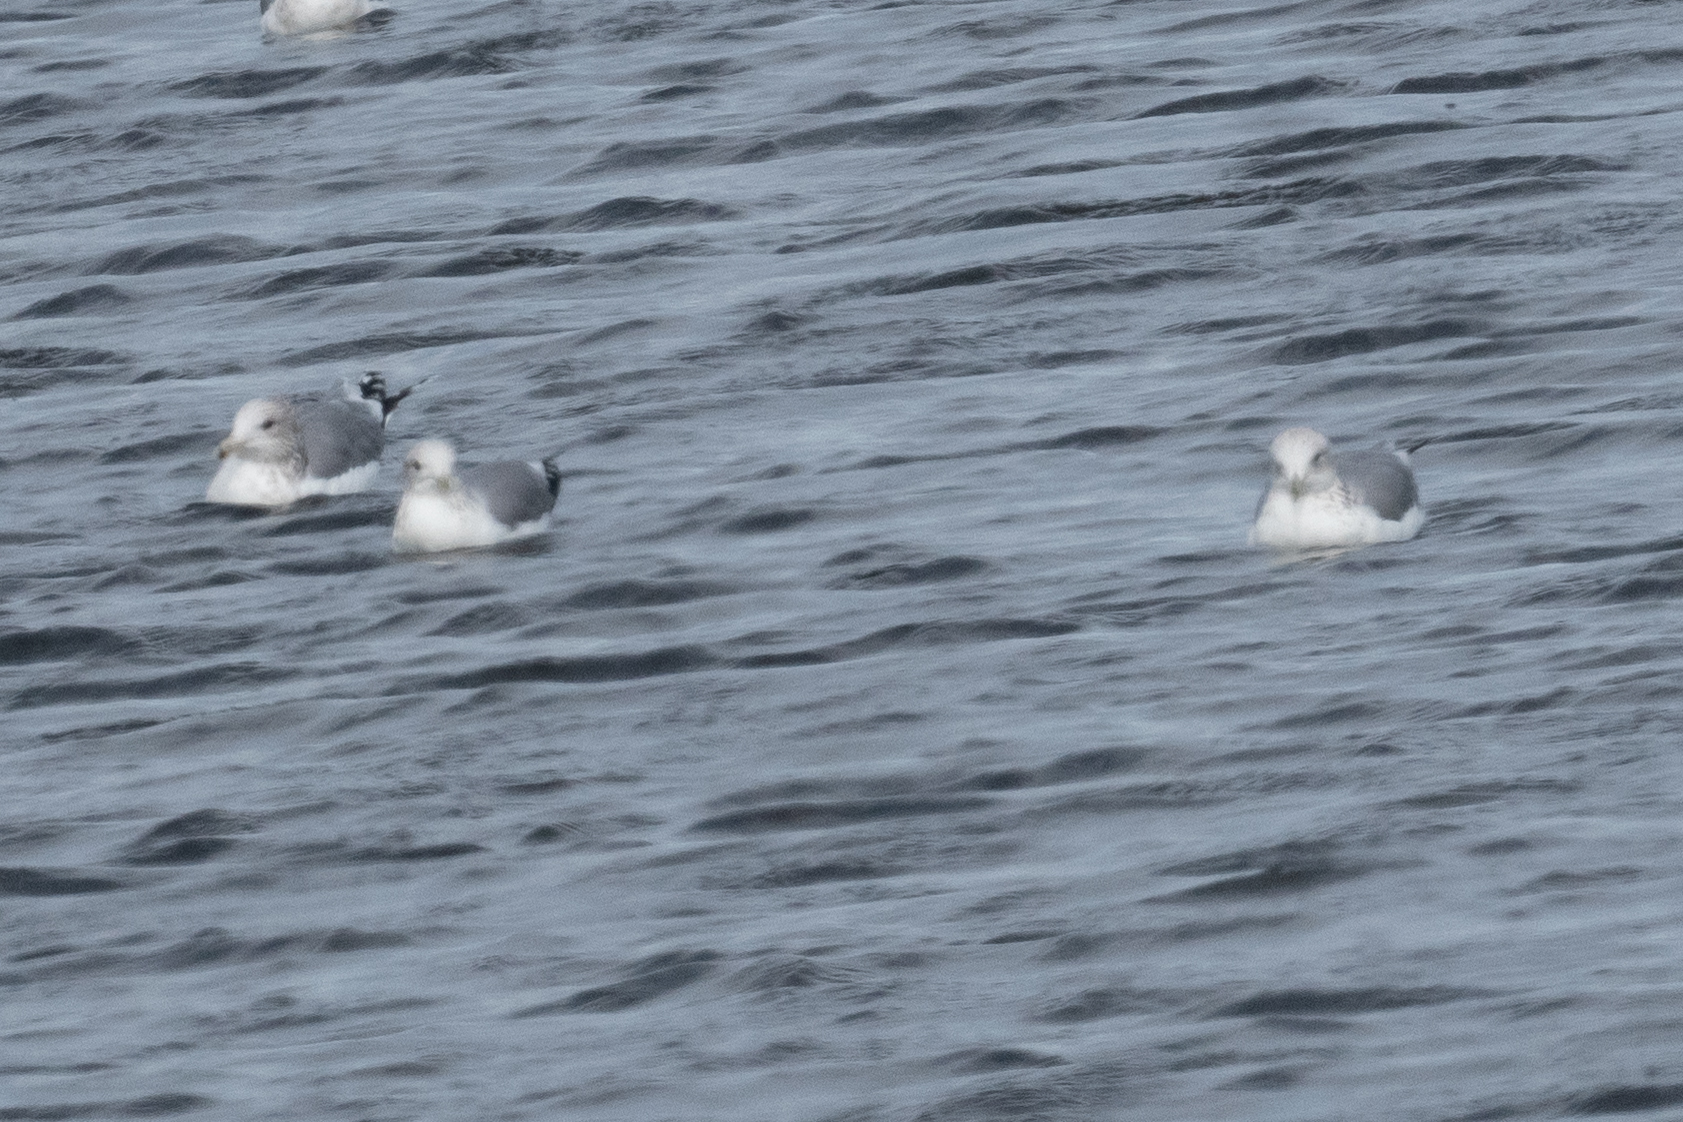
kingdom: Animalia
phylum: Chordata
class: Aves
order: Charadriiformes
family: Laridae
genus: Larus
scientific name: Larus californicus
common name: California gull
